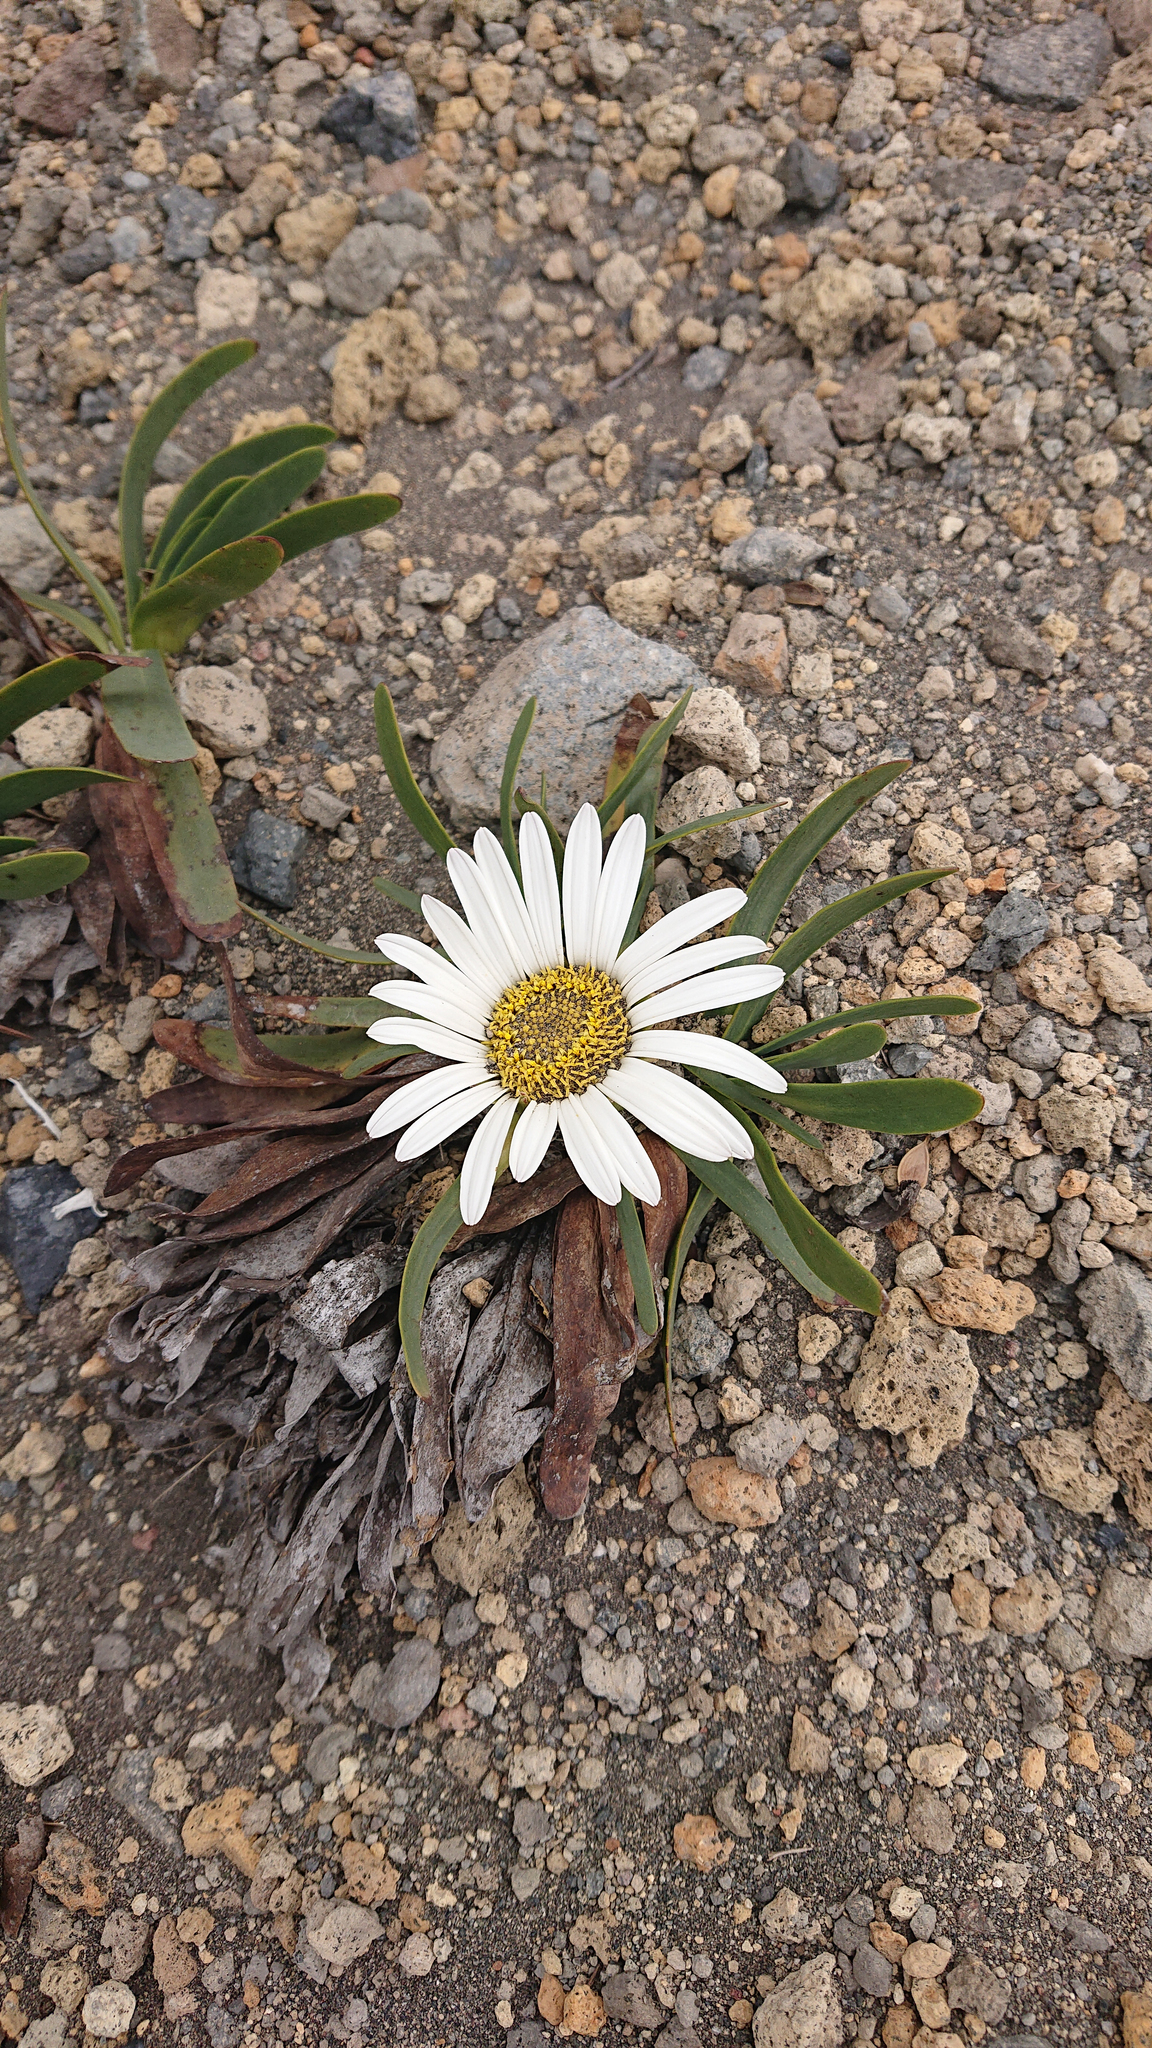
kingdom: Plantae
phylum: Tracheophyta
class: Magnoliopsida
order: Asterales
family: Asteraceae
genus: Rockhausenia
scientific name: Rockhausenia nubigena
